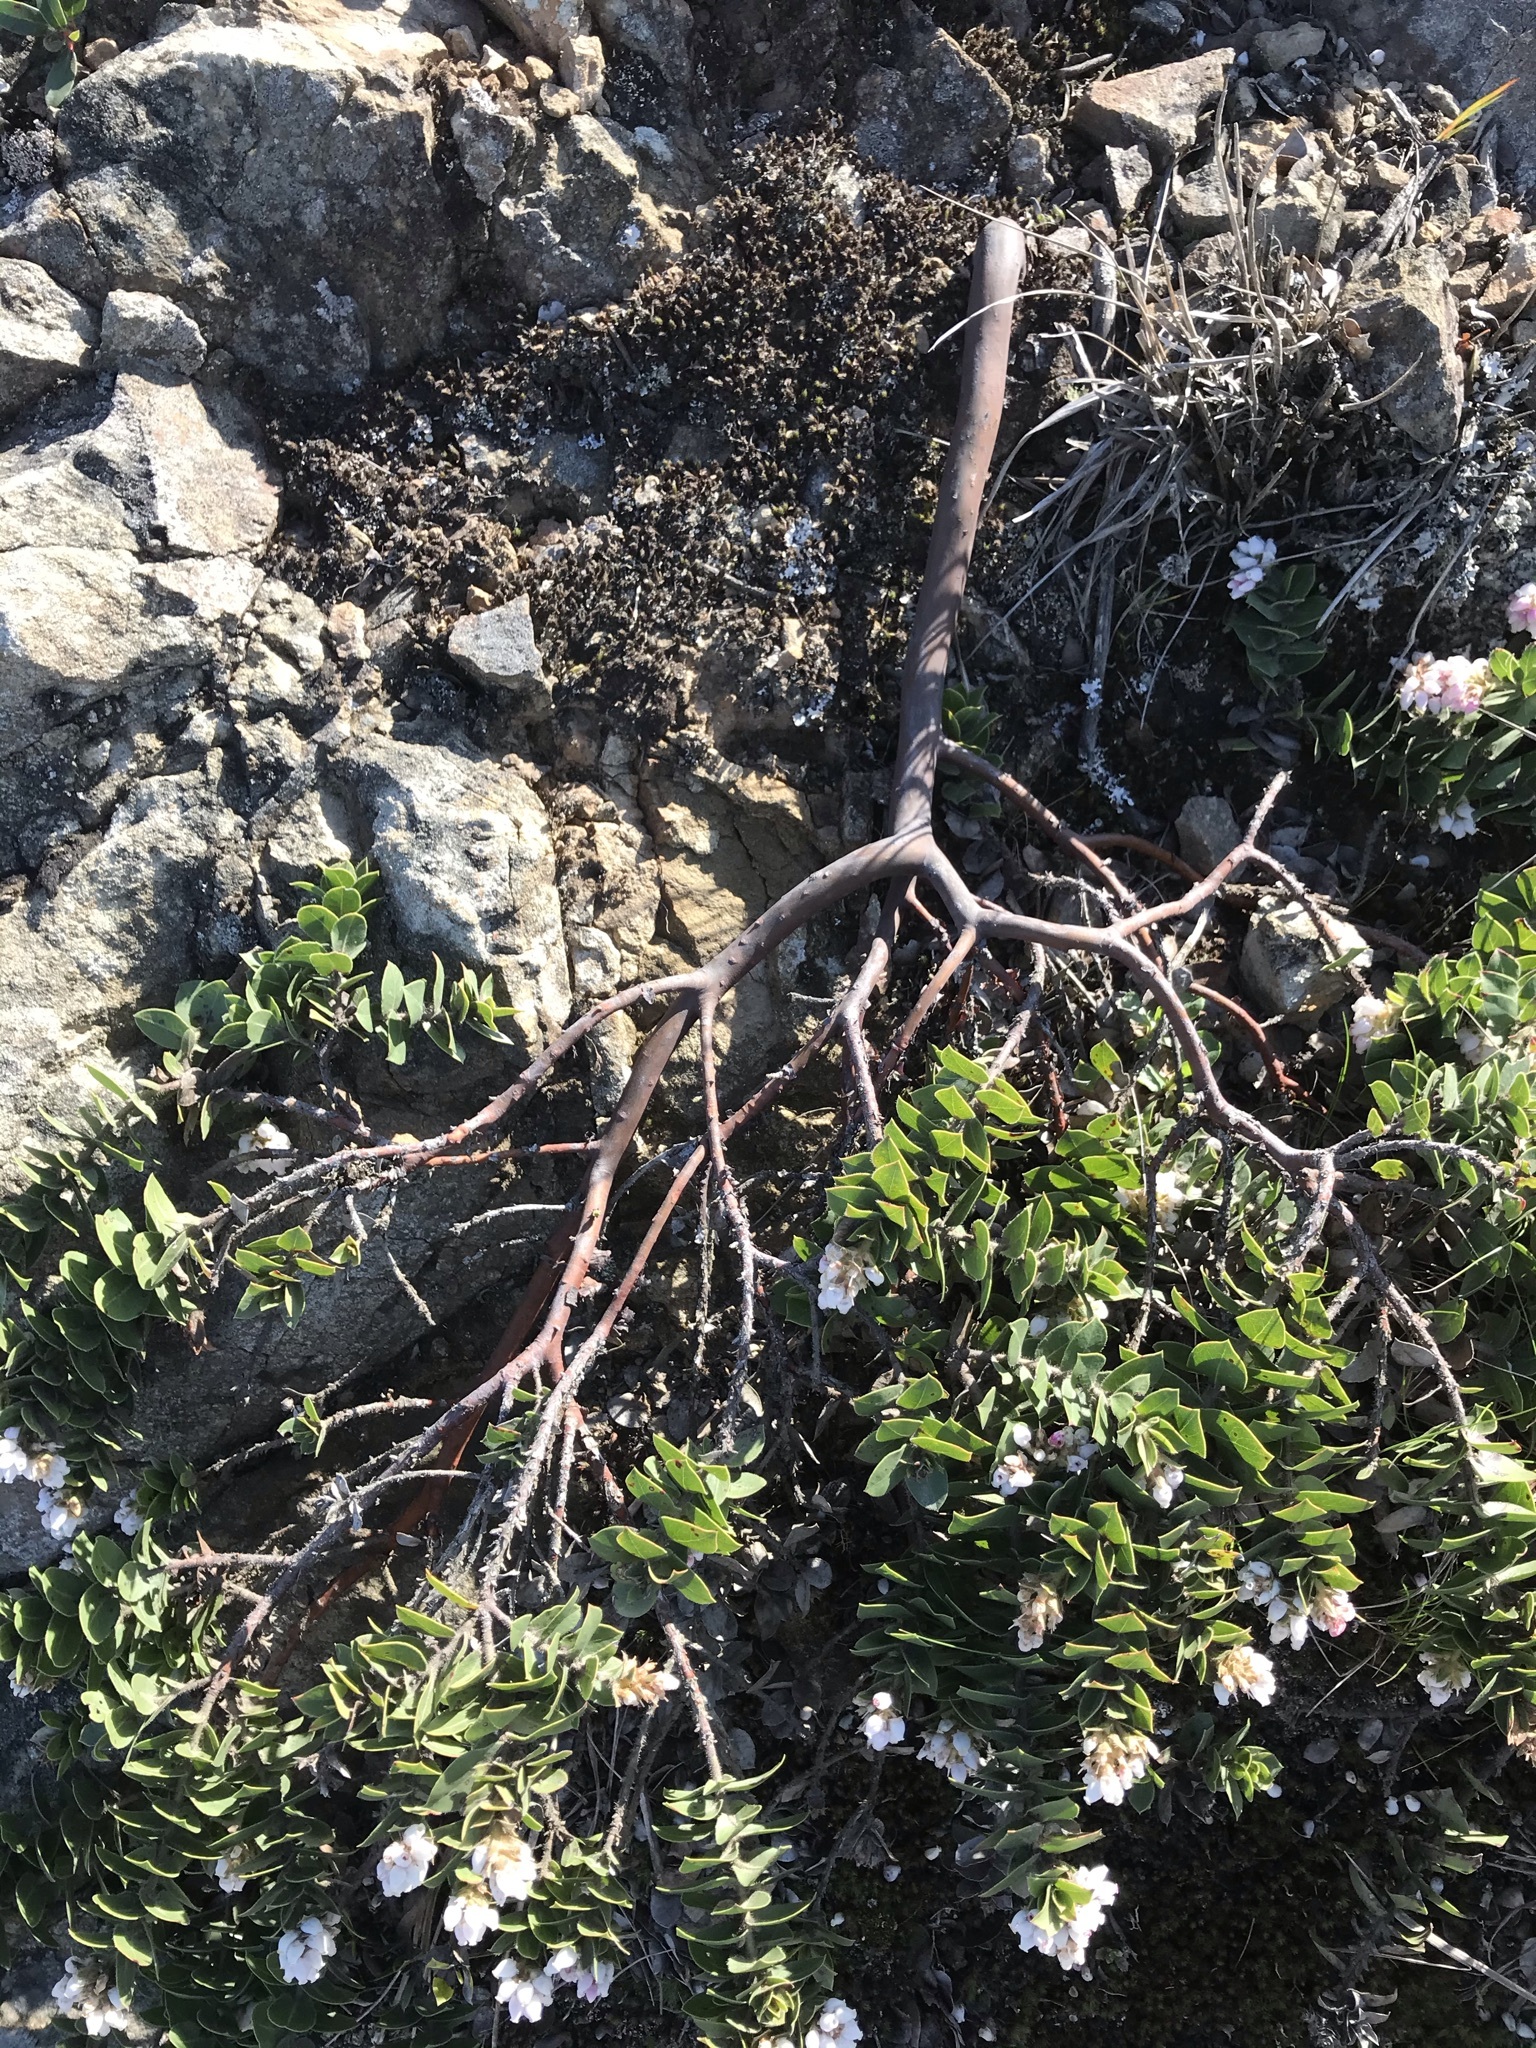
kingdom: Plantae
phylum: Tracheophyta
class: Magnoliopsida
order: Ericales
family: Ericaceae
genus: Arctostaphylos
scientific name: Arctostaphylos imbricata
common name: San bruno mountain manzanita
